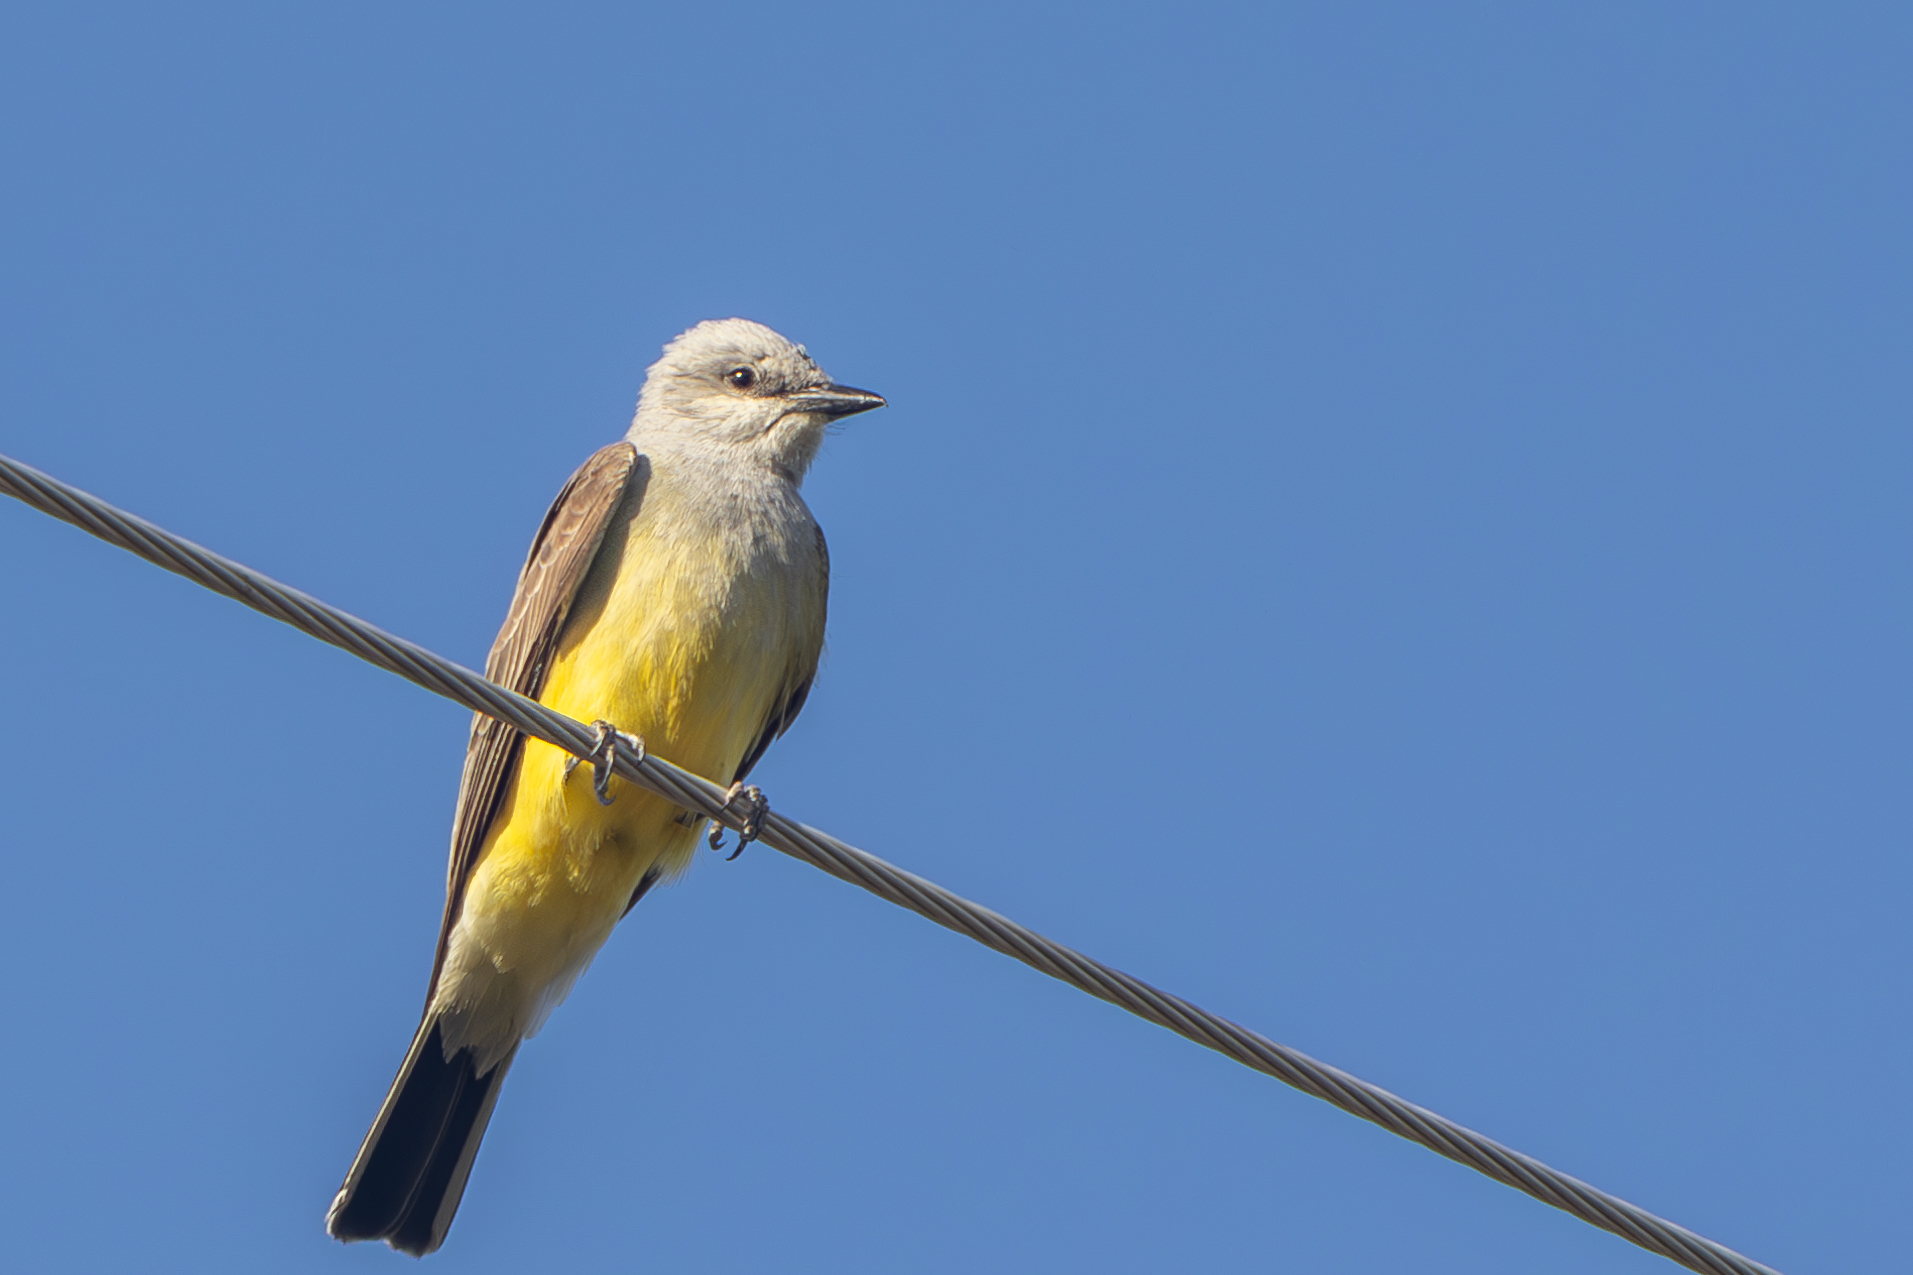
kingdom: Animalia
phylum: Chordata
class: Aves
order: Passeriformes
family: Tyrannidae
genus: Tyrannus
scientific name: Tyrannus verticalis
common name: Western kingbird
